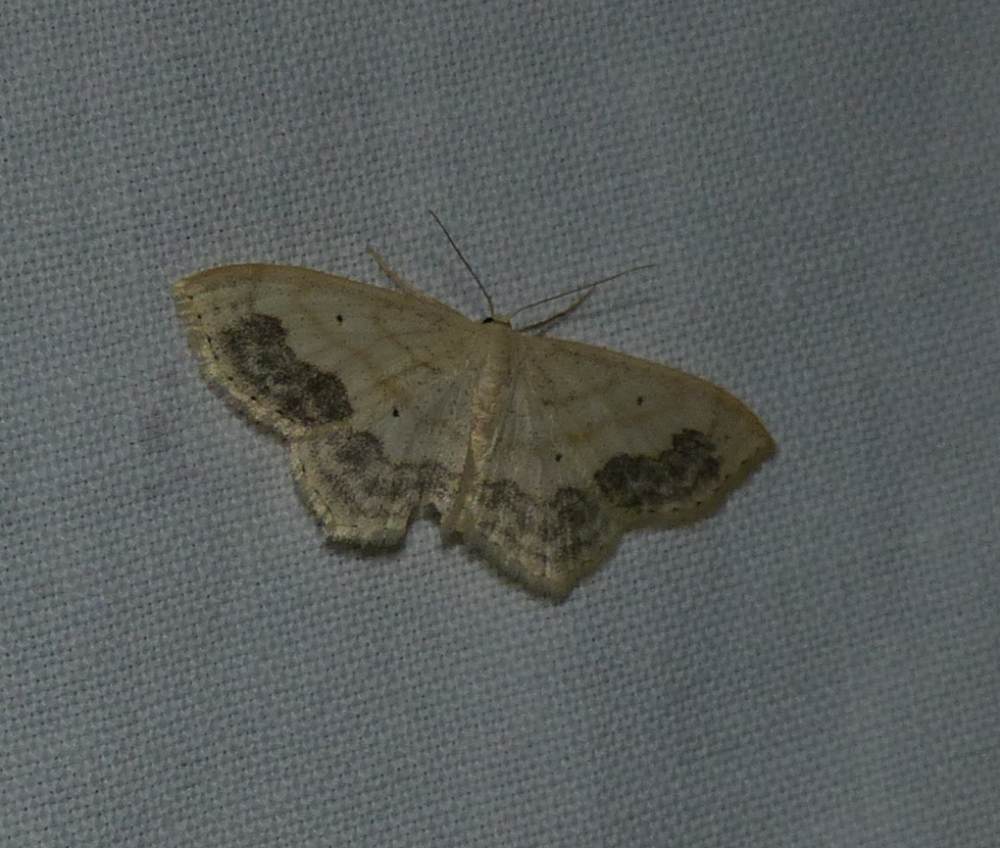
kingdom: Animalia
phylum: Arthropoda
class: Insecta
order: Lepidoptera
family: Geometridae
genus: Scopula
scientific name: Scopula limboundata
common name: Large lace border
